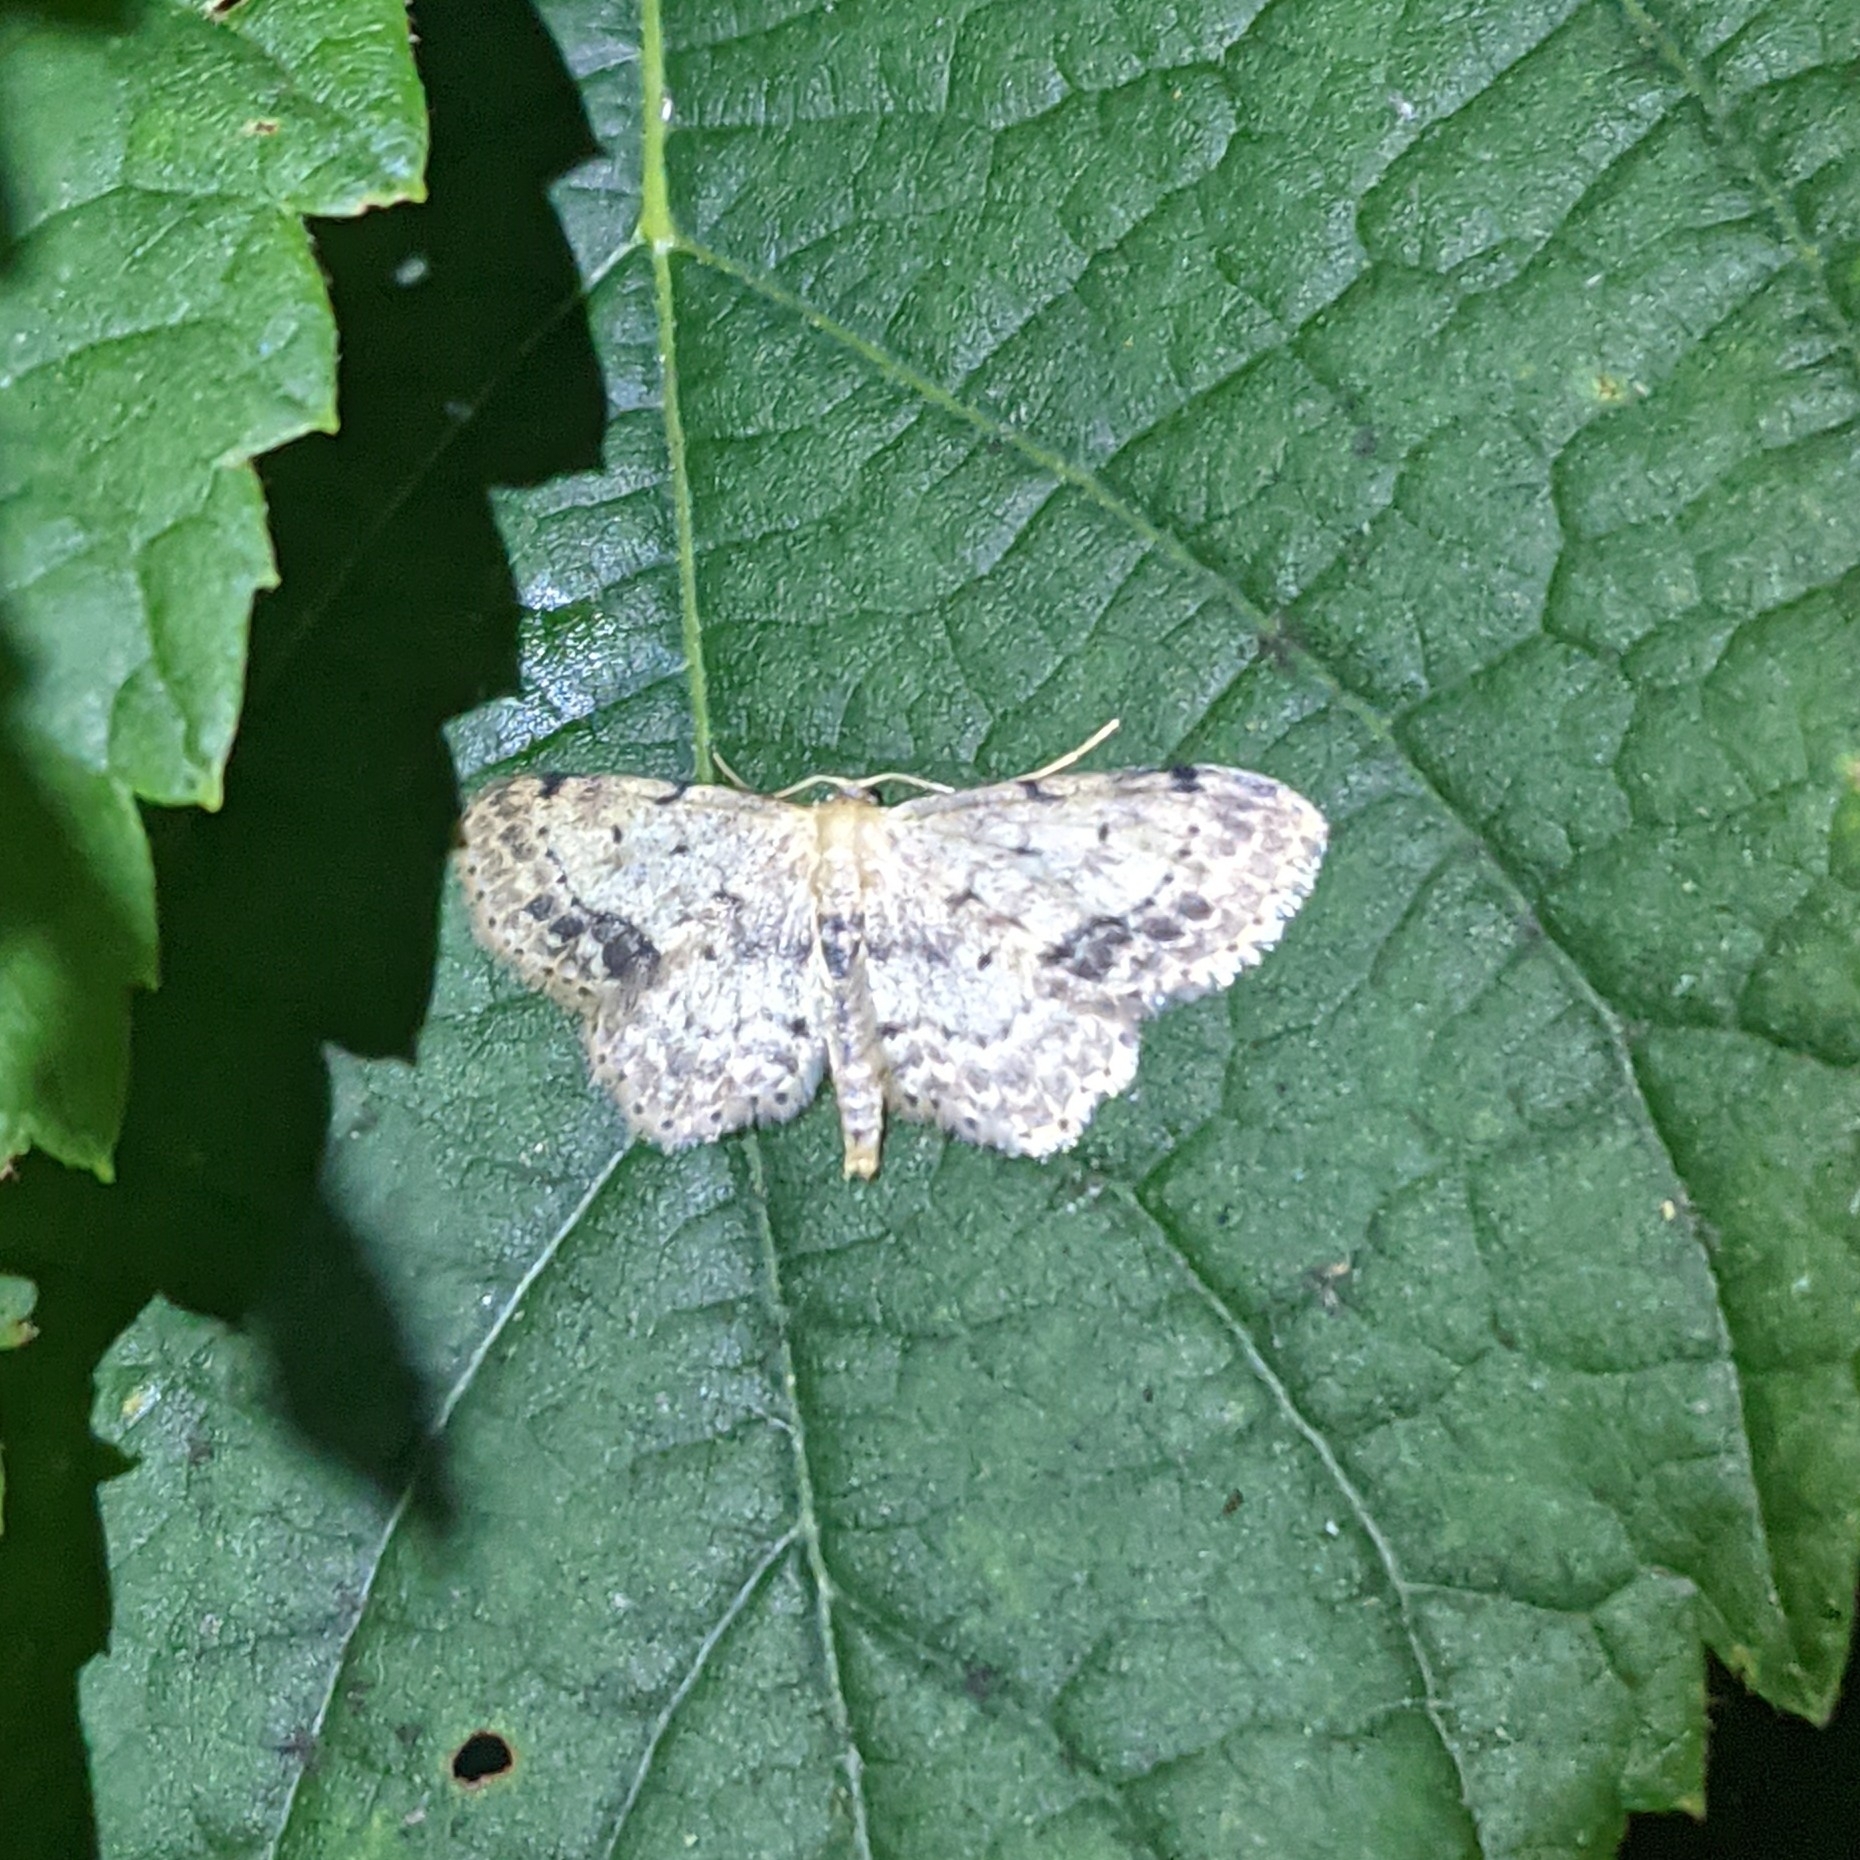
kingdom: Animalia
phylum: Arthropoda
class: Insecta
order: Lepidoptera
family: Geometridae
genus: Idaea
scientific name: Idaea dimidiata
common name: Single-dotted wave
